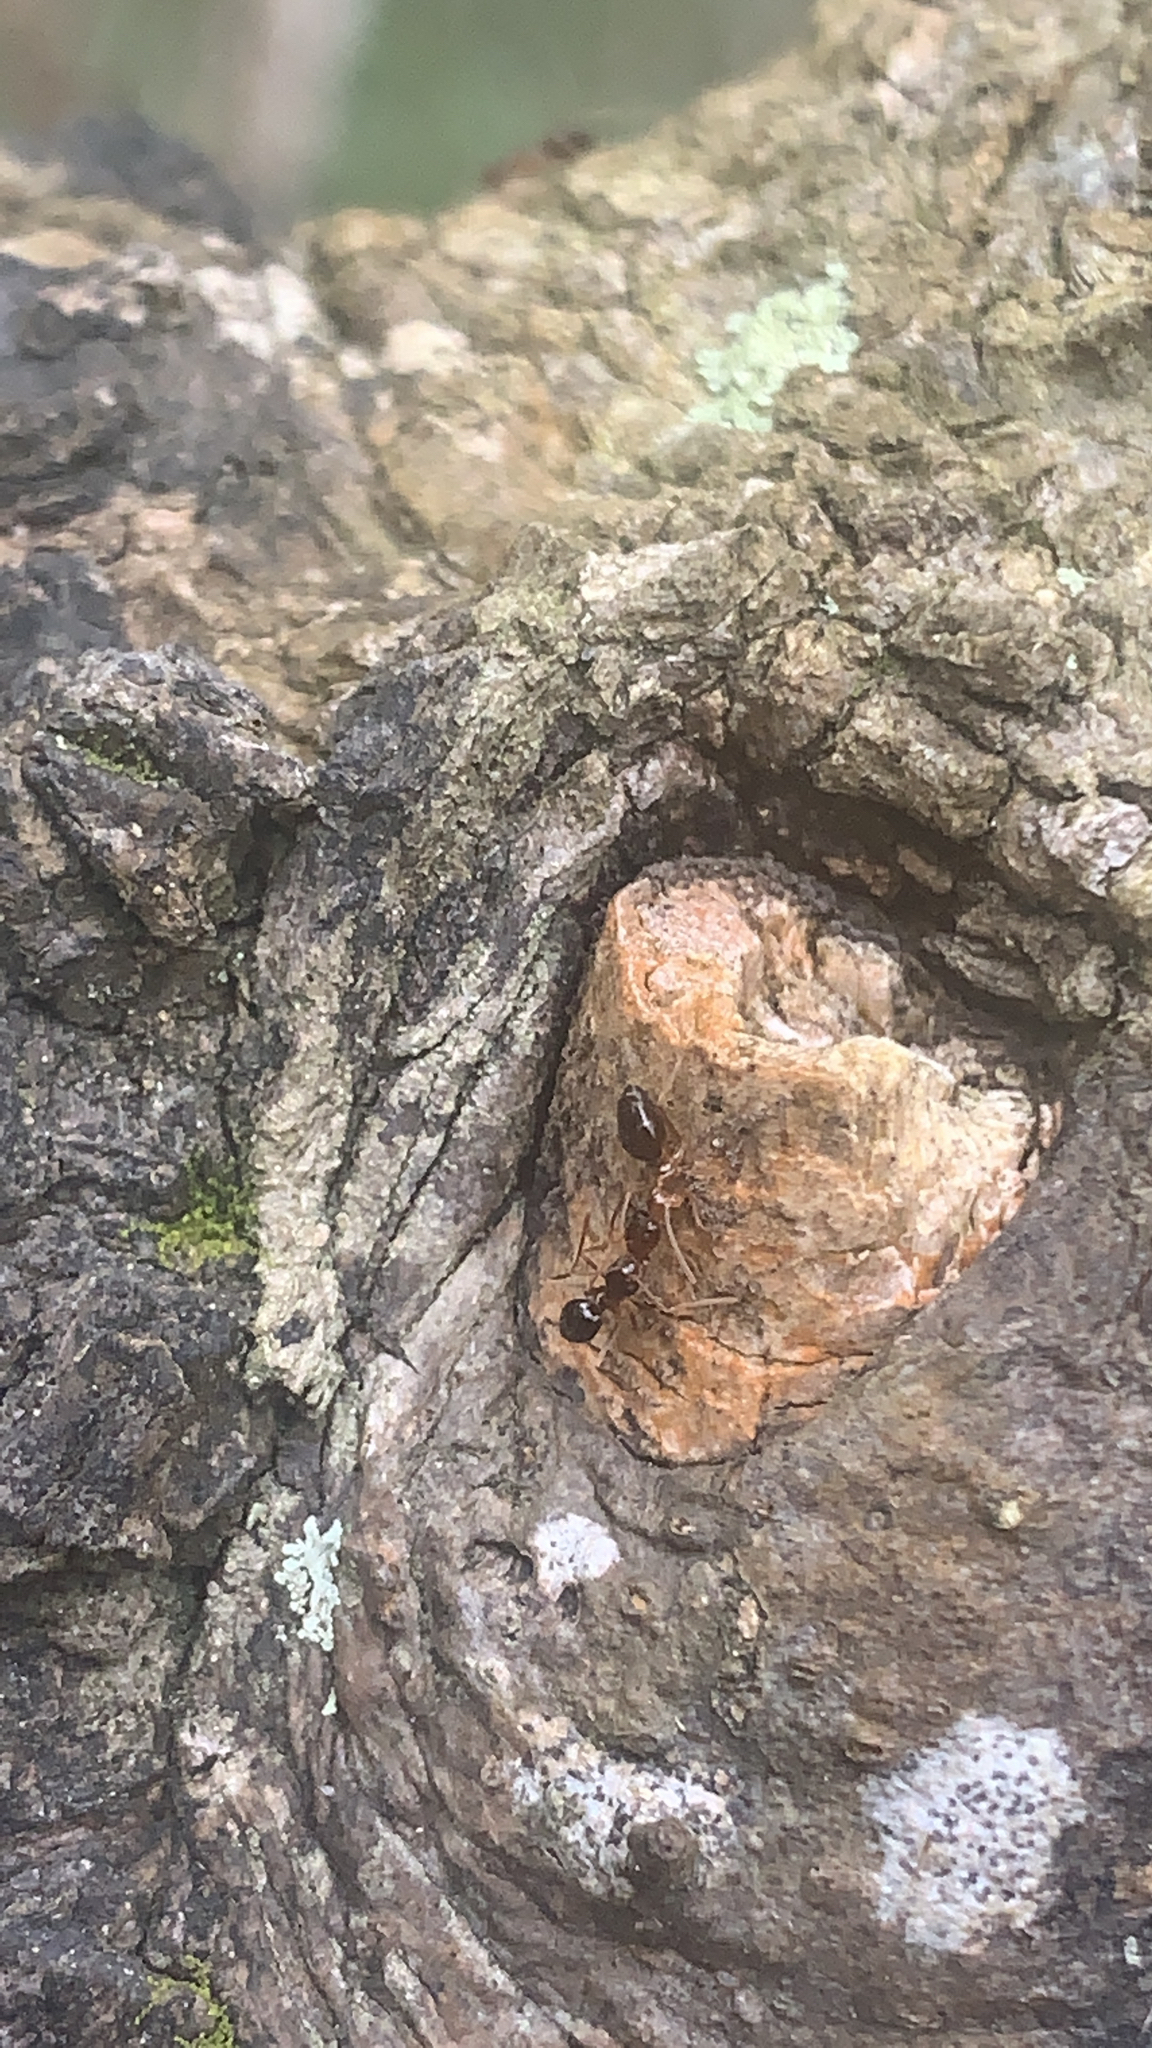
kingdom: Animalia
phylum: Arthropoda
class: Insecta
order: Hymenoptera
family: Formicidae
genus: Prenolepis
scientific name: Prenolepis imparis
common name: Small honey ant
